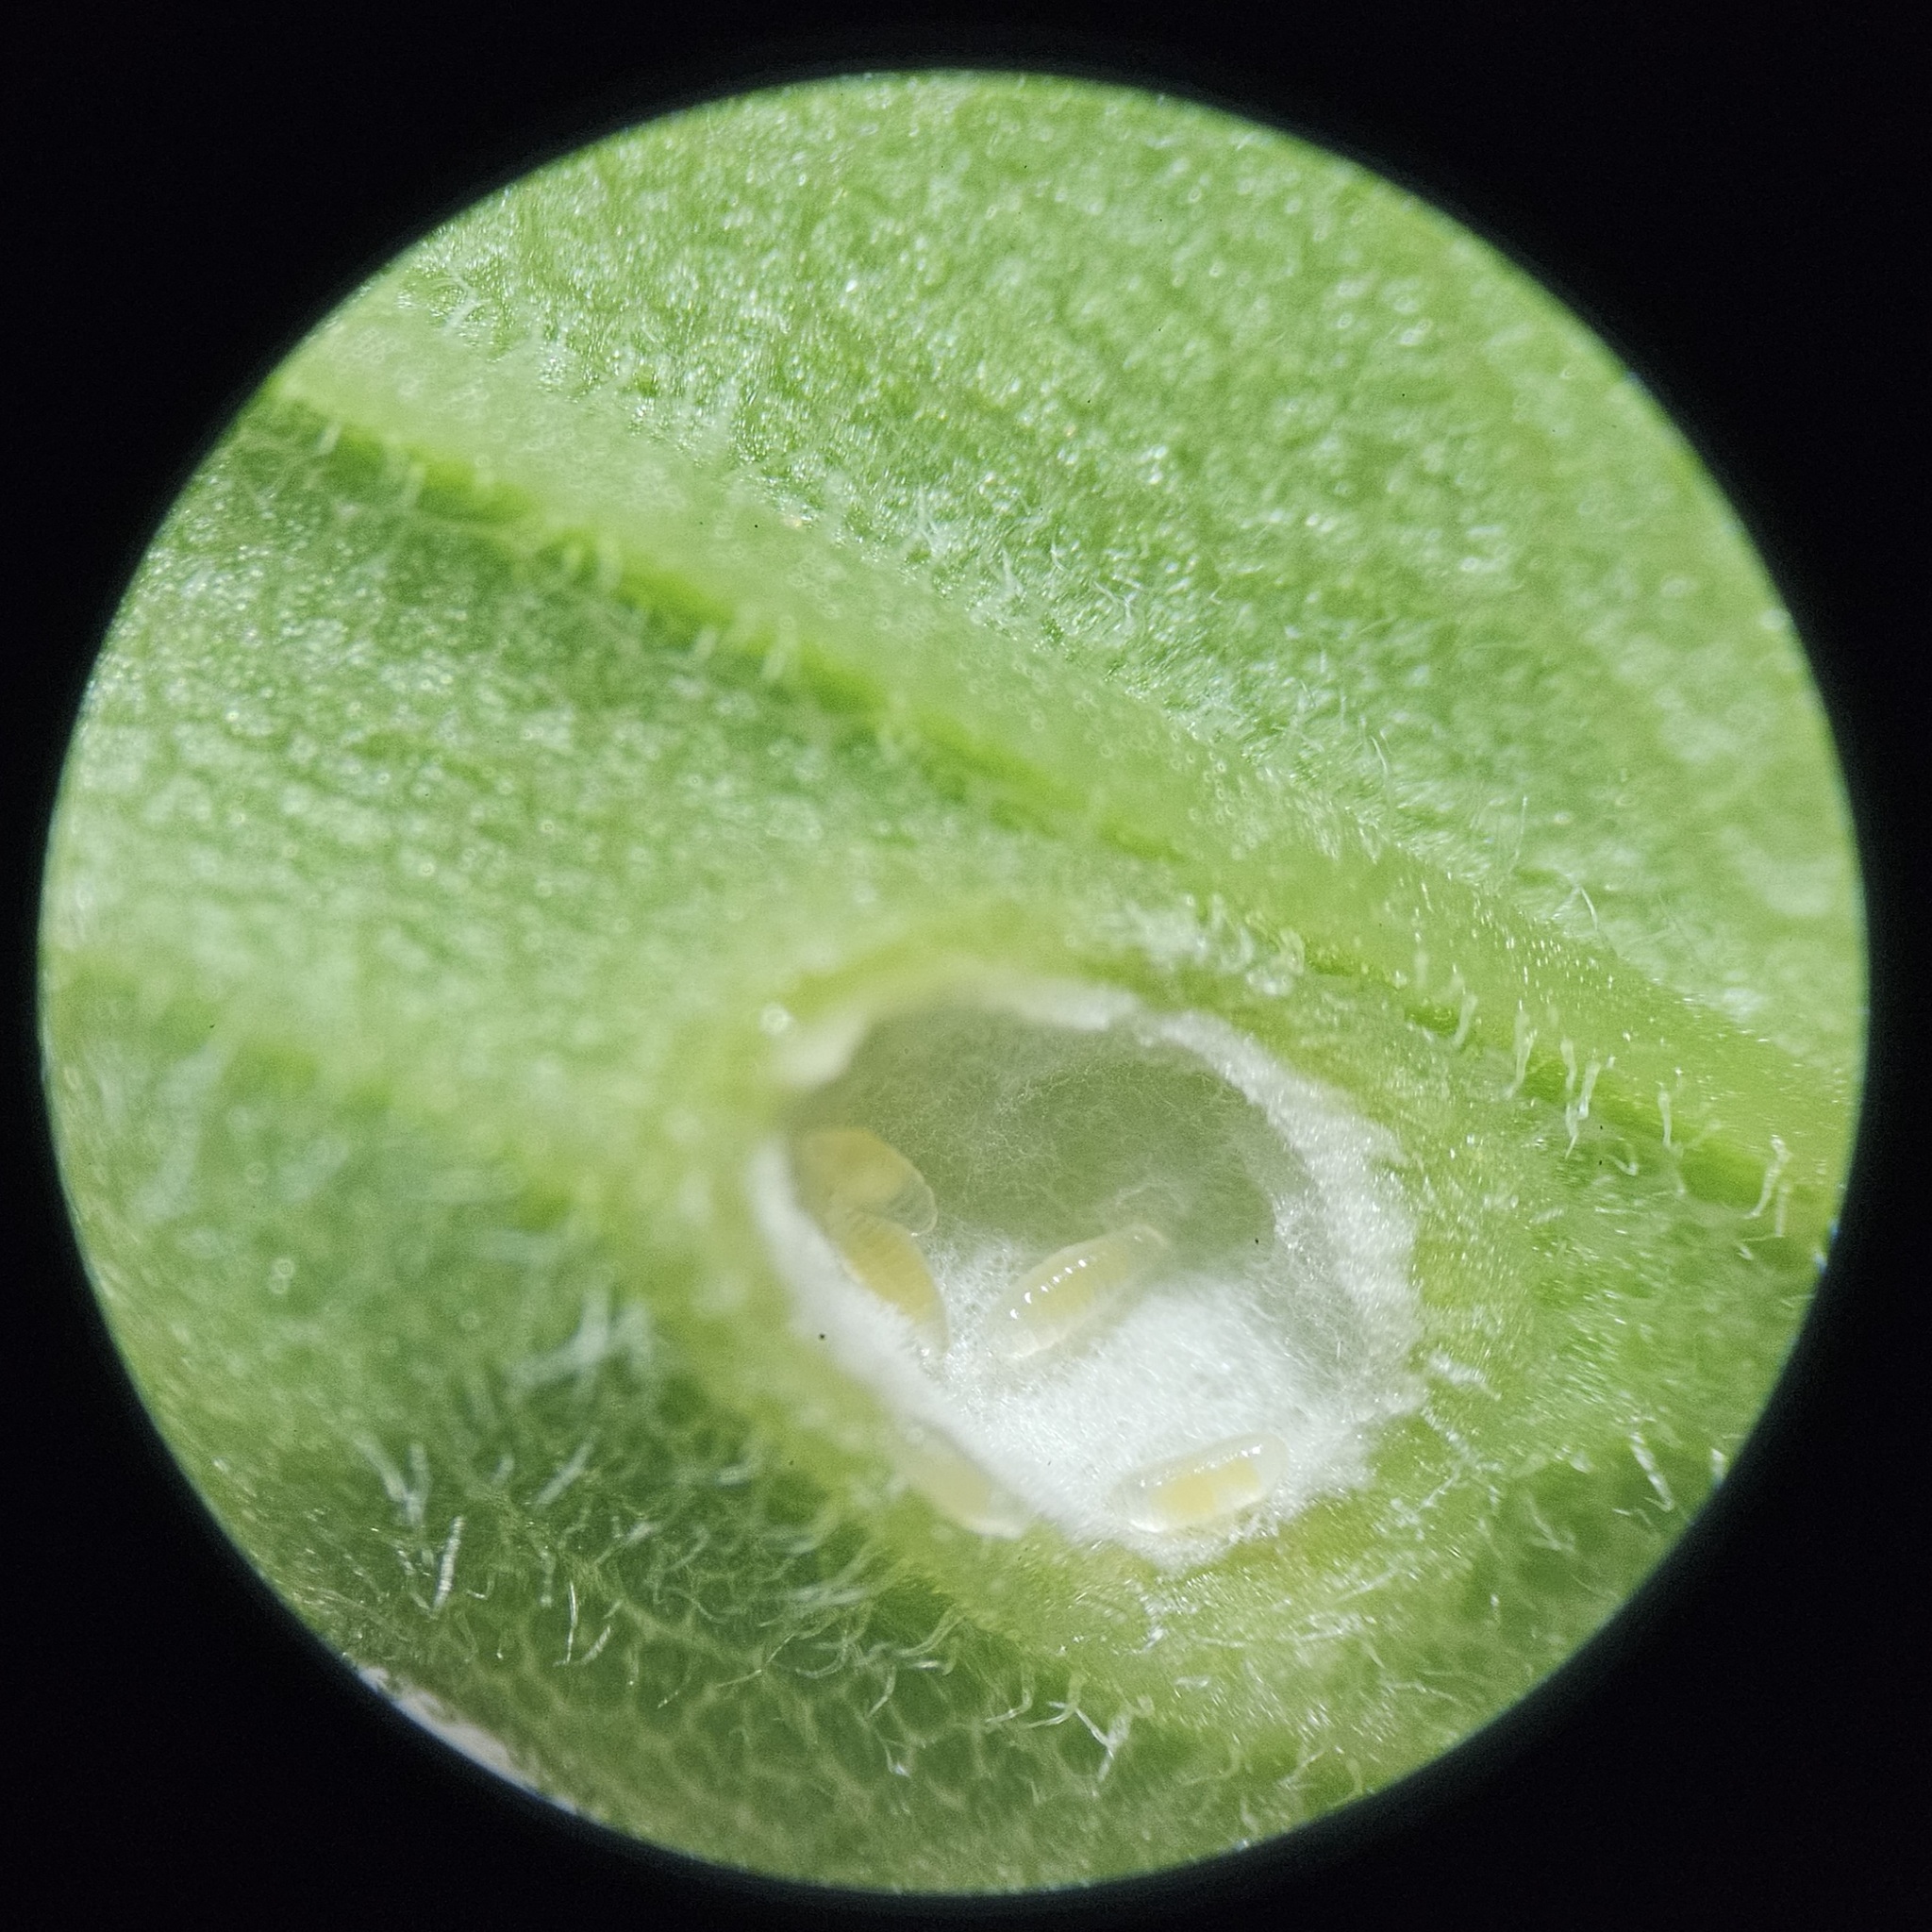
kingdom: Animalia
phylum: Arthropoda
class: Insecta
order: Diptera
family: Cecidomyiidae
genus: Asphondylia
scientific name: Asphondylia solidaginis
